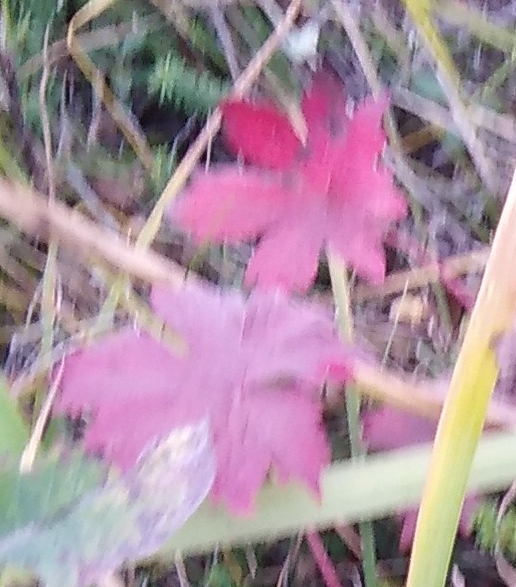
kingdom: Plantae
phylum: Tracheophyta
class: Magnoliopsida
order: Geraniales
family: Geraniaceae
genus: Geranium
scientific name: Geranium erianthum
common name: Northern crane's-bill
